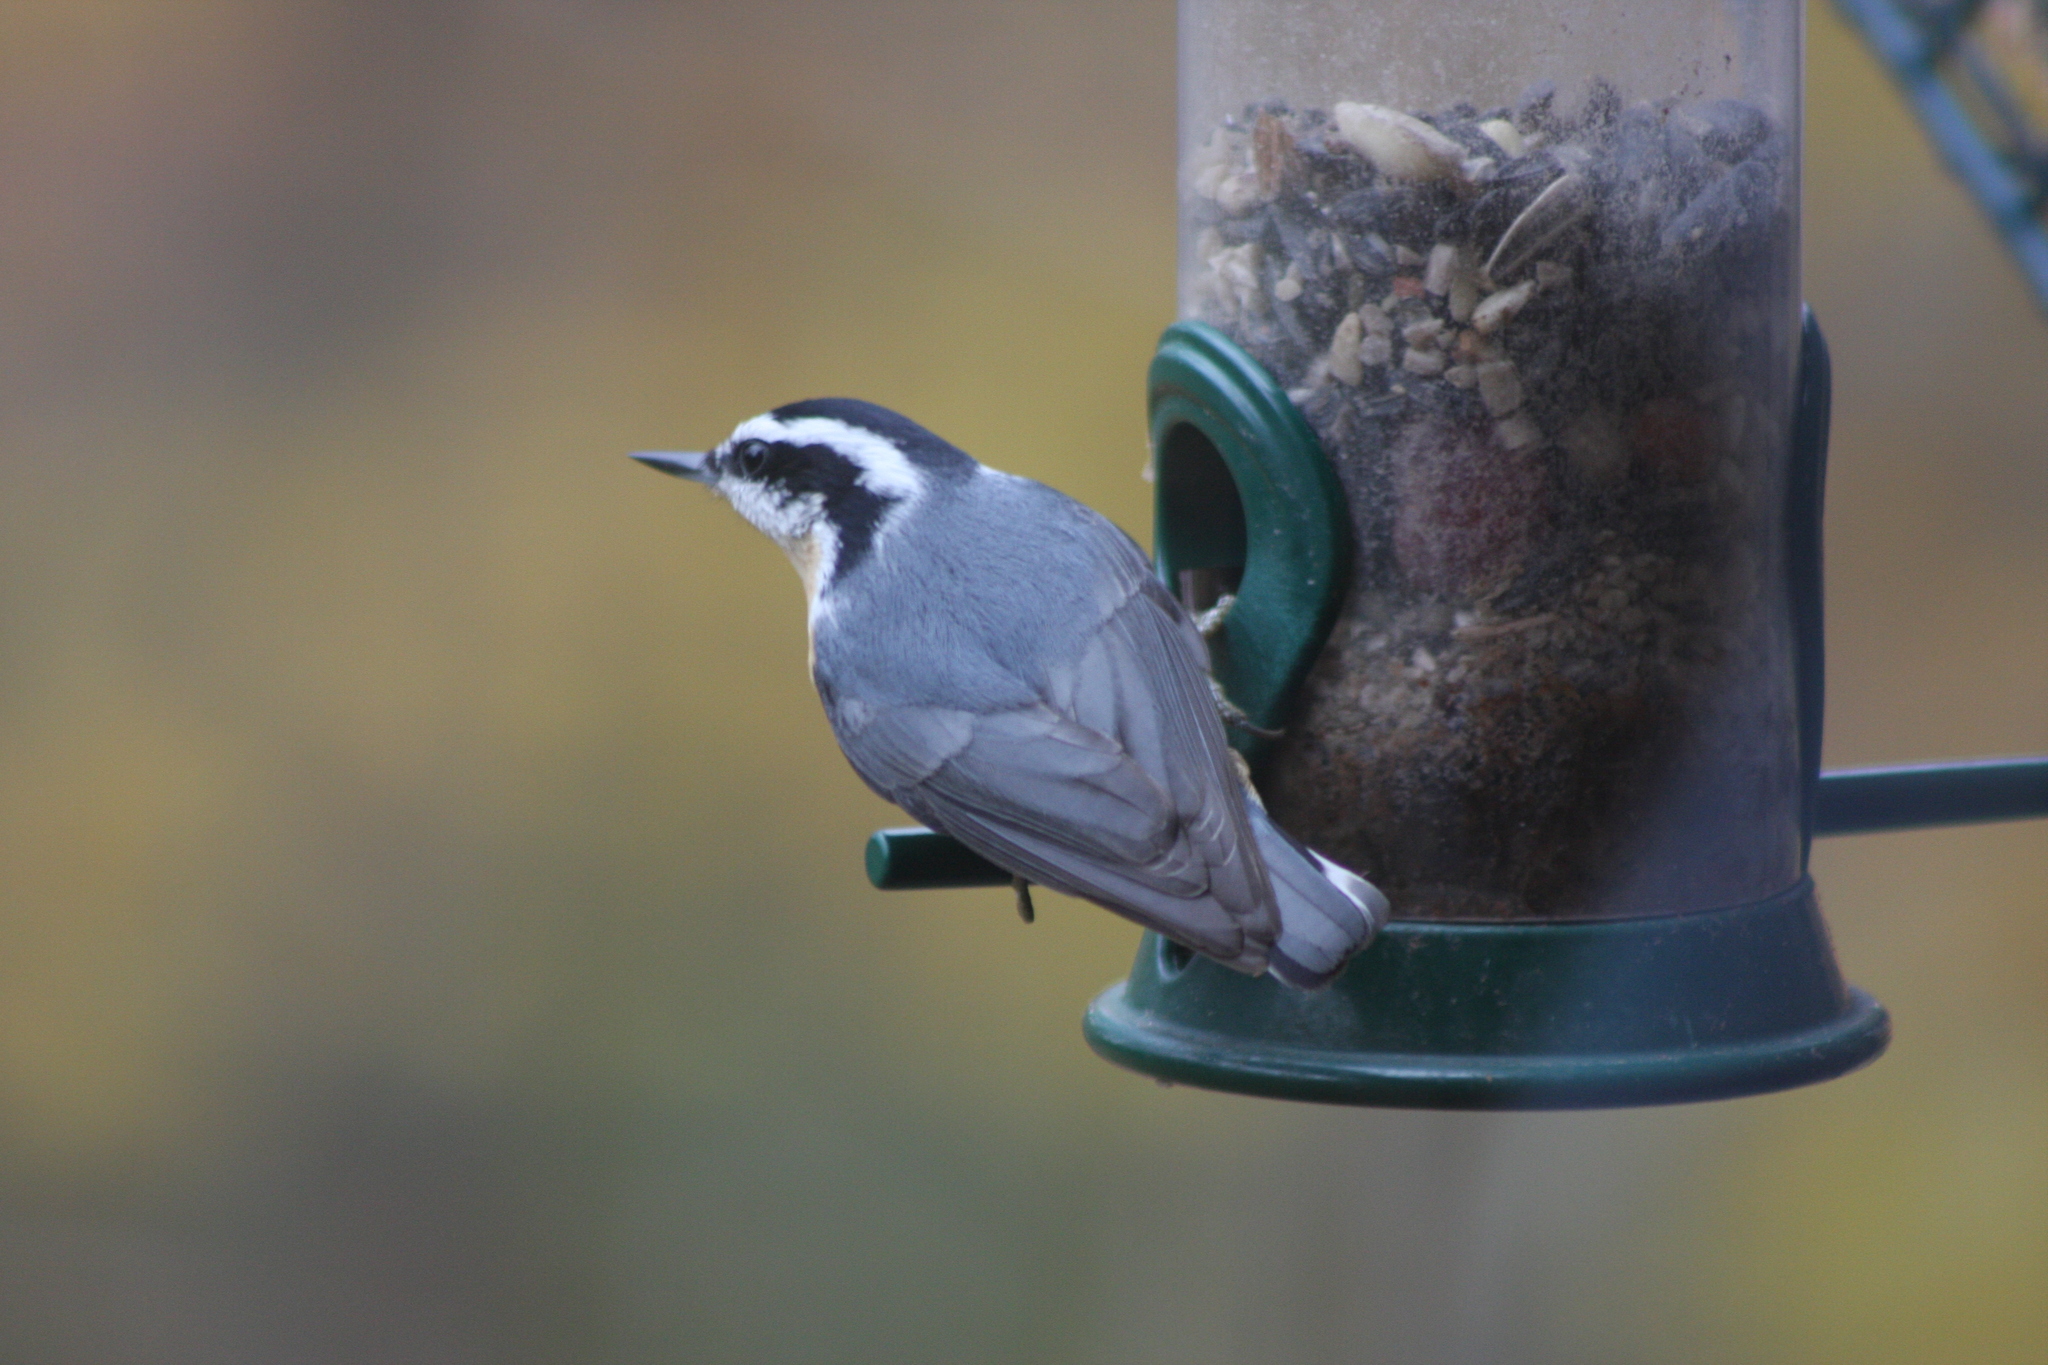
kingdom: Animalia
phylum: Chordata
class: Aves
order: Passeriformes
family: Sittidae
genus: Sitta
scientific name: Sitta canadensis
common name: Red-breasted nuthatch
